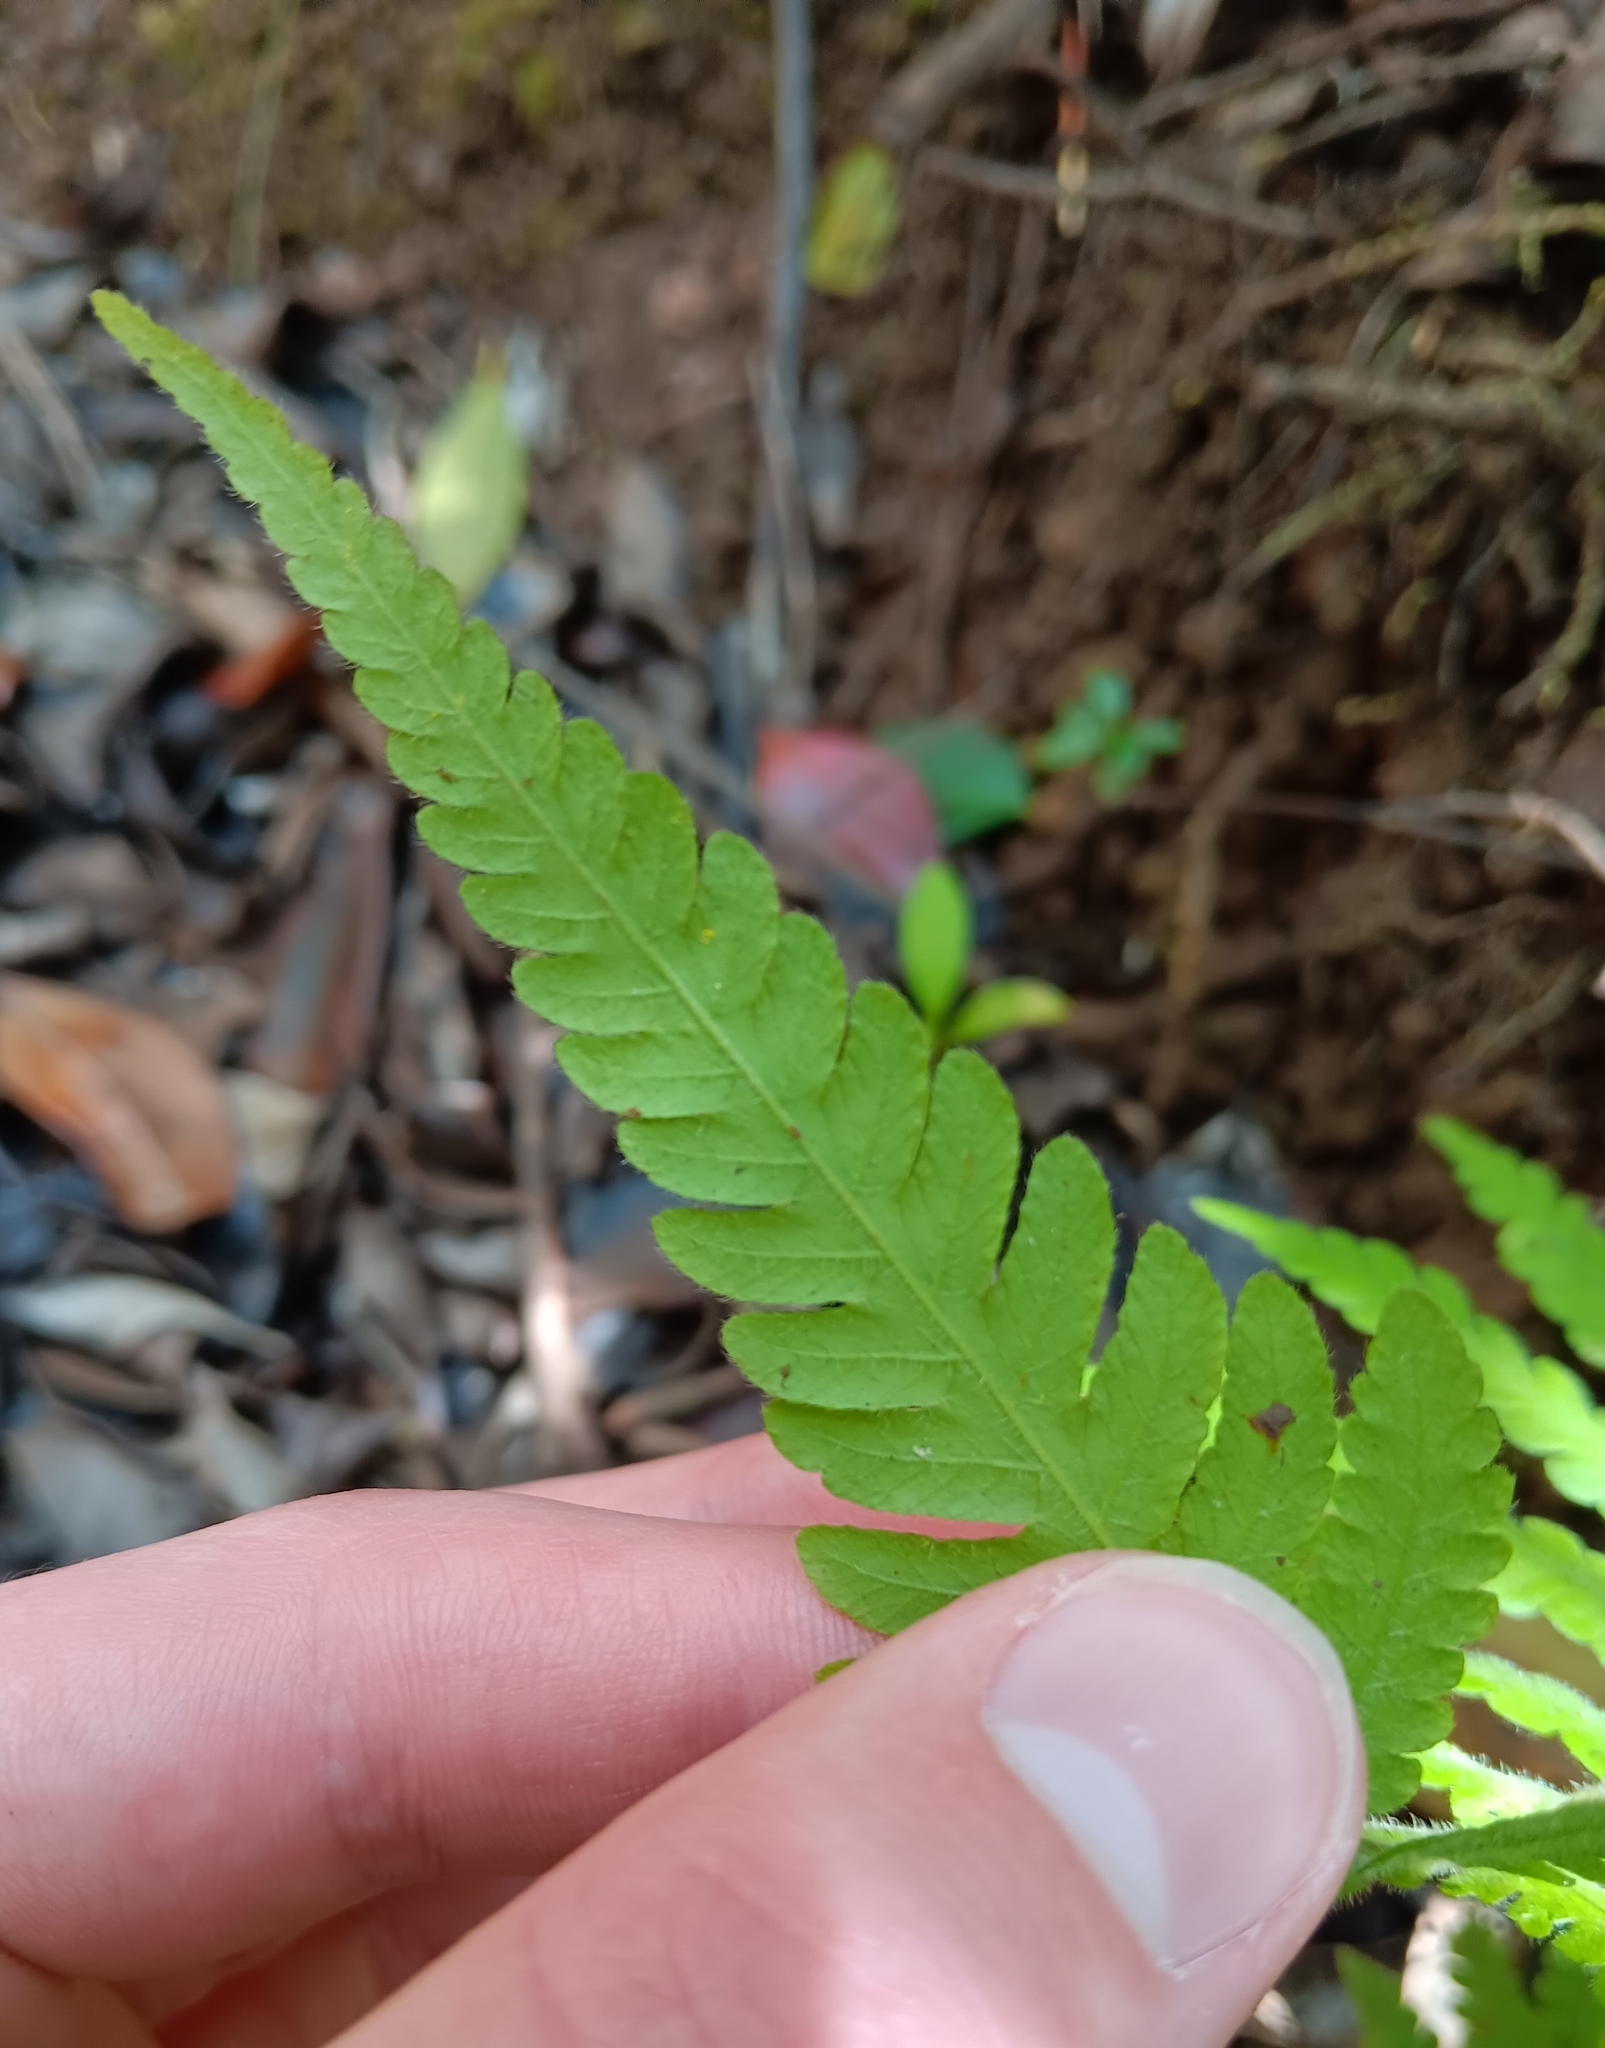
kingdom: Plantae
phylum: Tracheophyta
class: Polypodiopsida
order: Polypodiales
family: Thelypteridaceae
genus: Christella
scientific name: Christella parasitica
